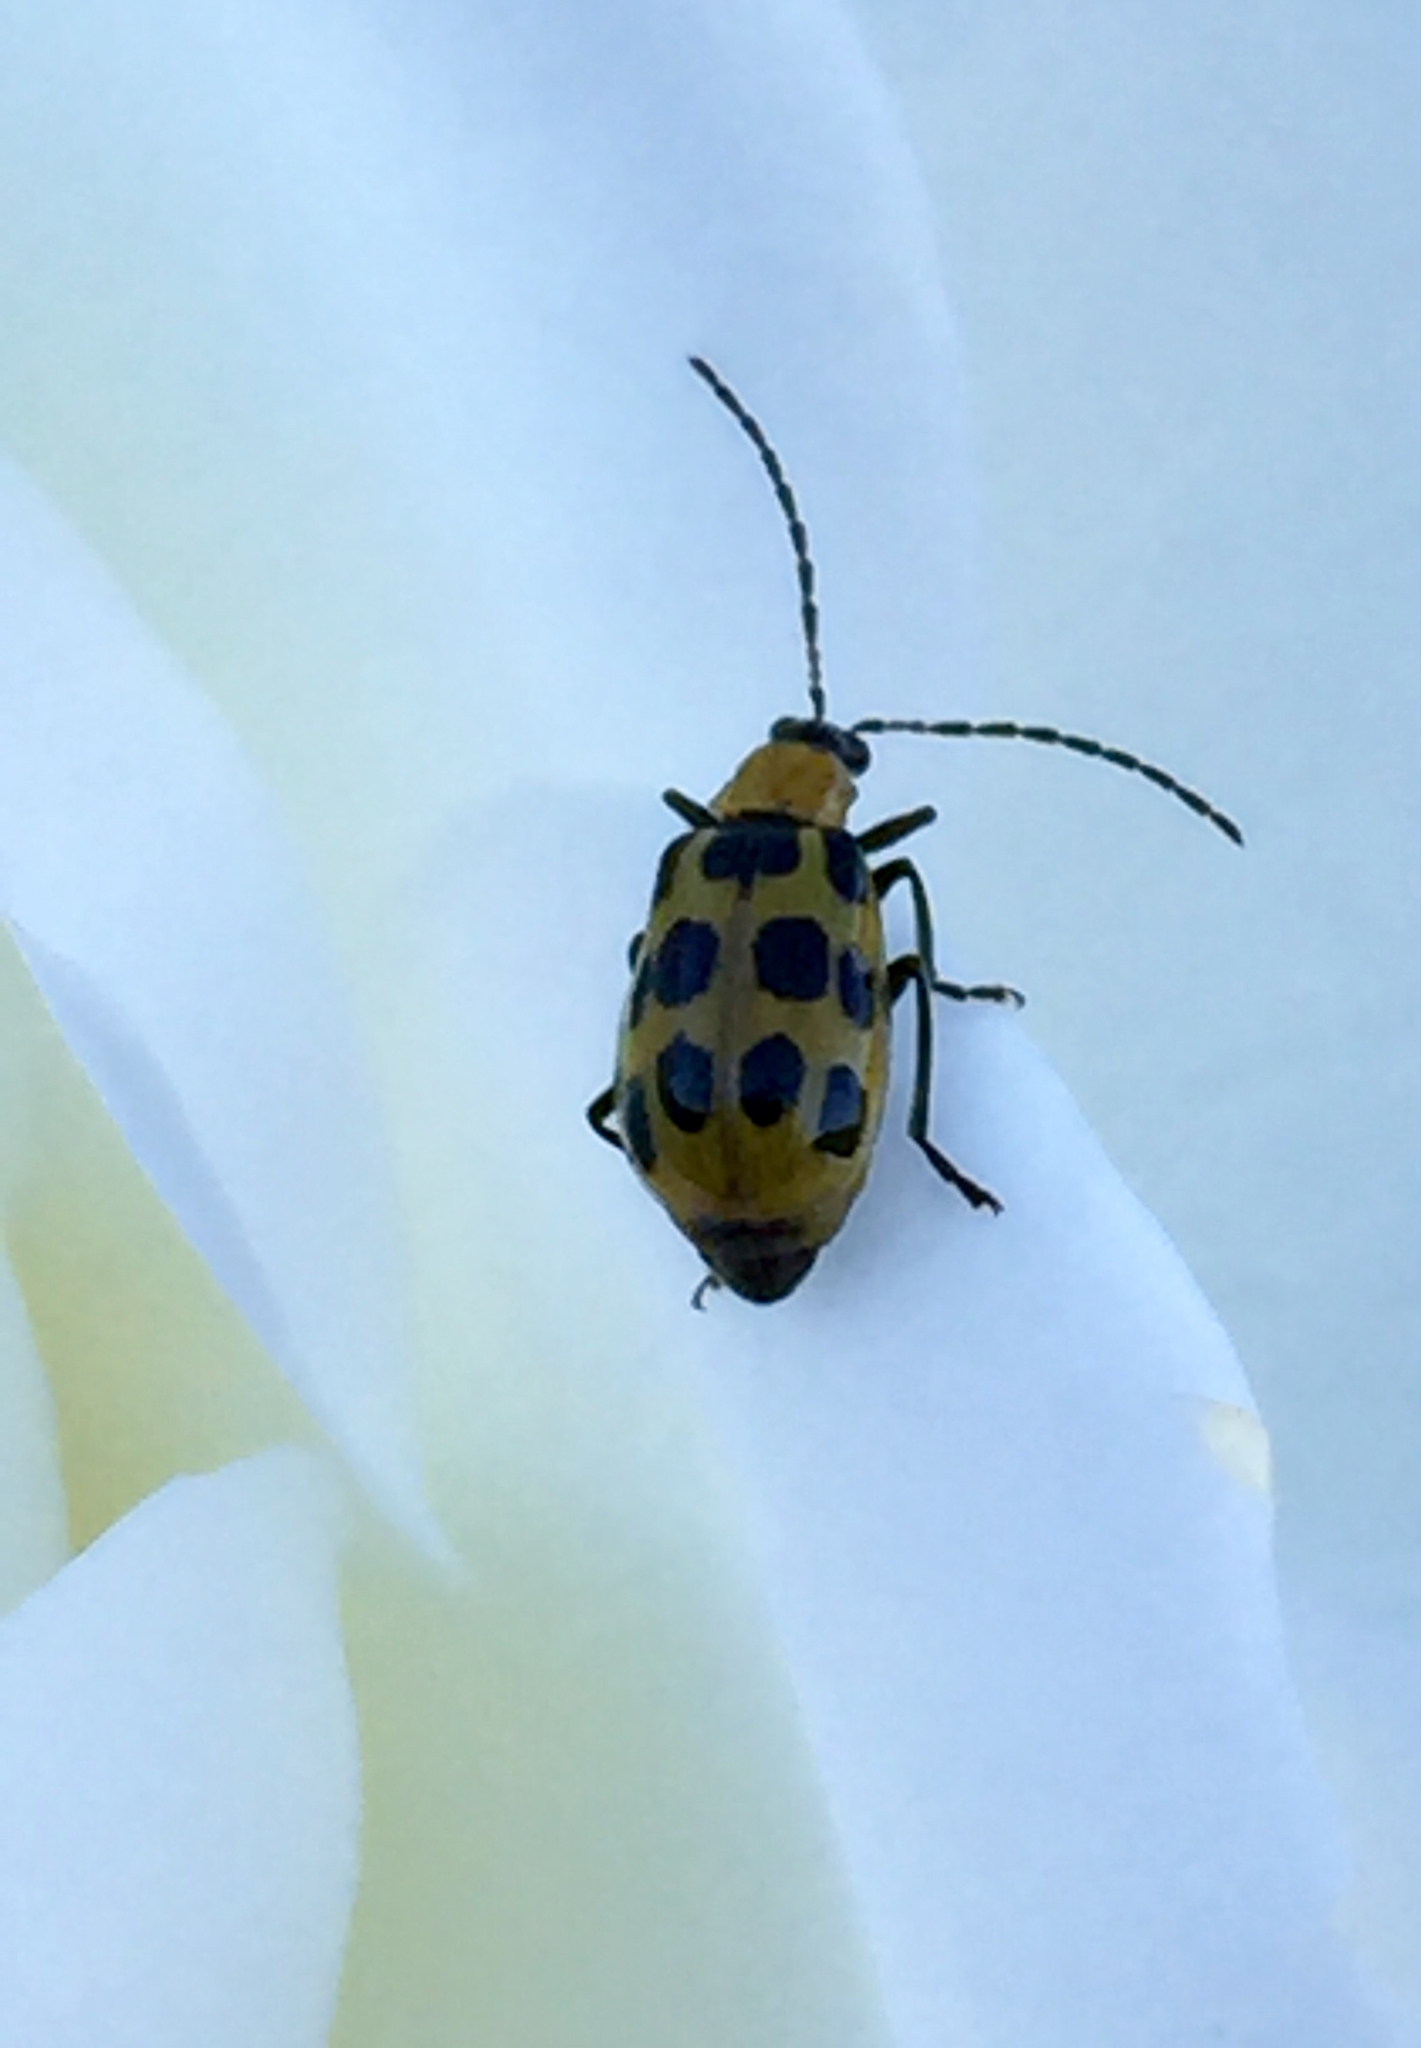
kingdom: Animalia
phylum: Arthropoda
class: Insecta
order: Coleoptera
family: Chrysomelidae
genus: Diabrotica
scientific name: Diabrotica undecimpunctata
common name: Spotted cucumber beetle
